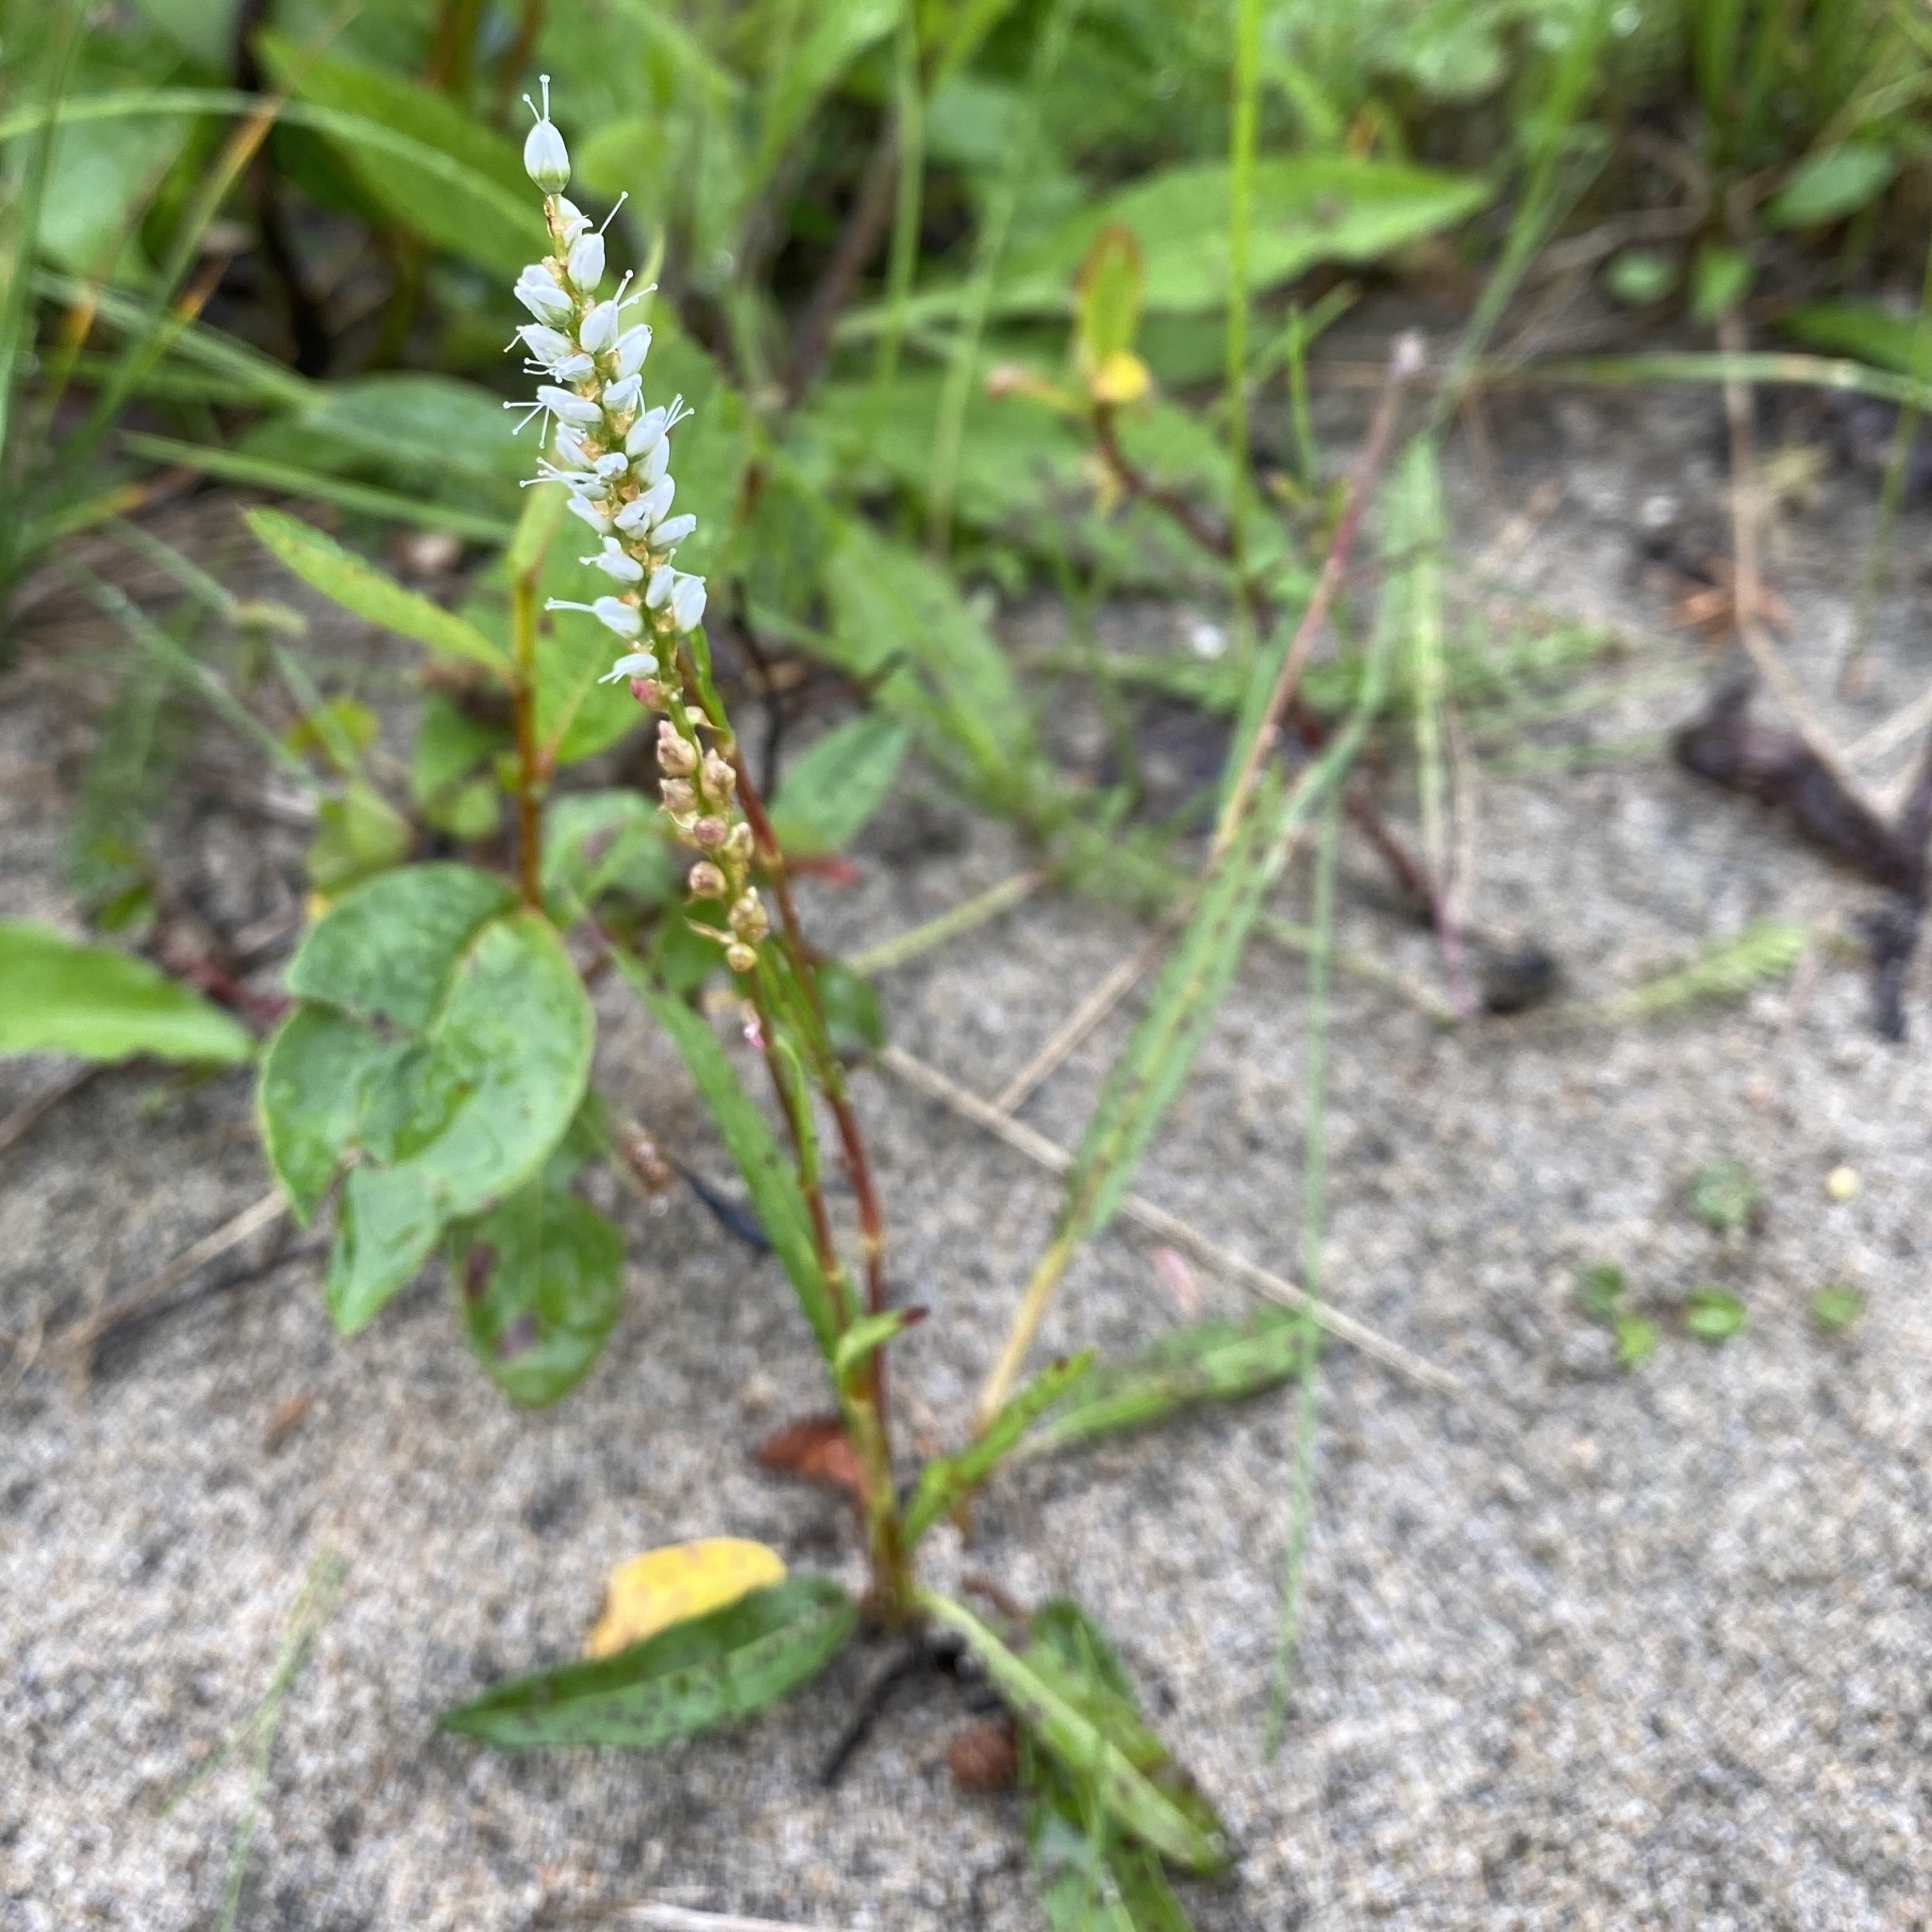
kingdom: Plantae
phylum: Tracheophyta
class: Magnoliopsida
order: Caryophyllales
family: Polygonaceae
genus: Bistorta
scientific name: Bistorta vivipara
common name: Alpine bistort
